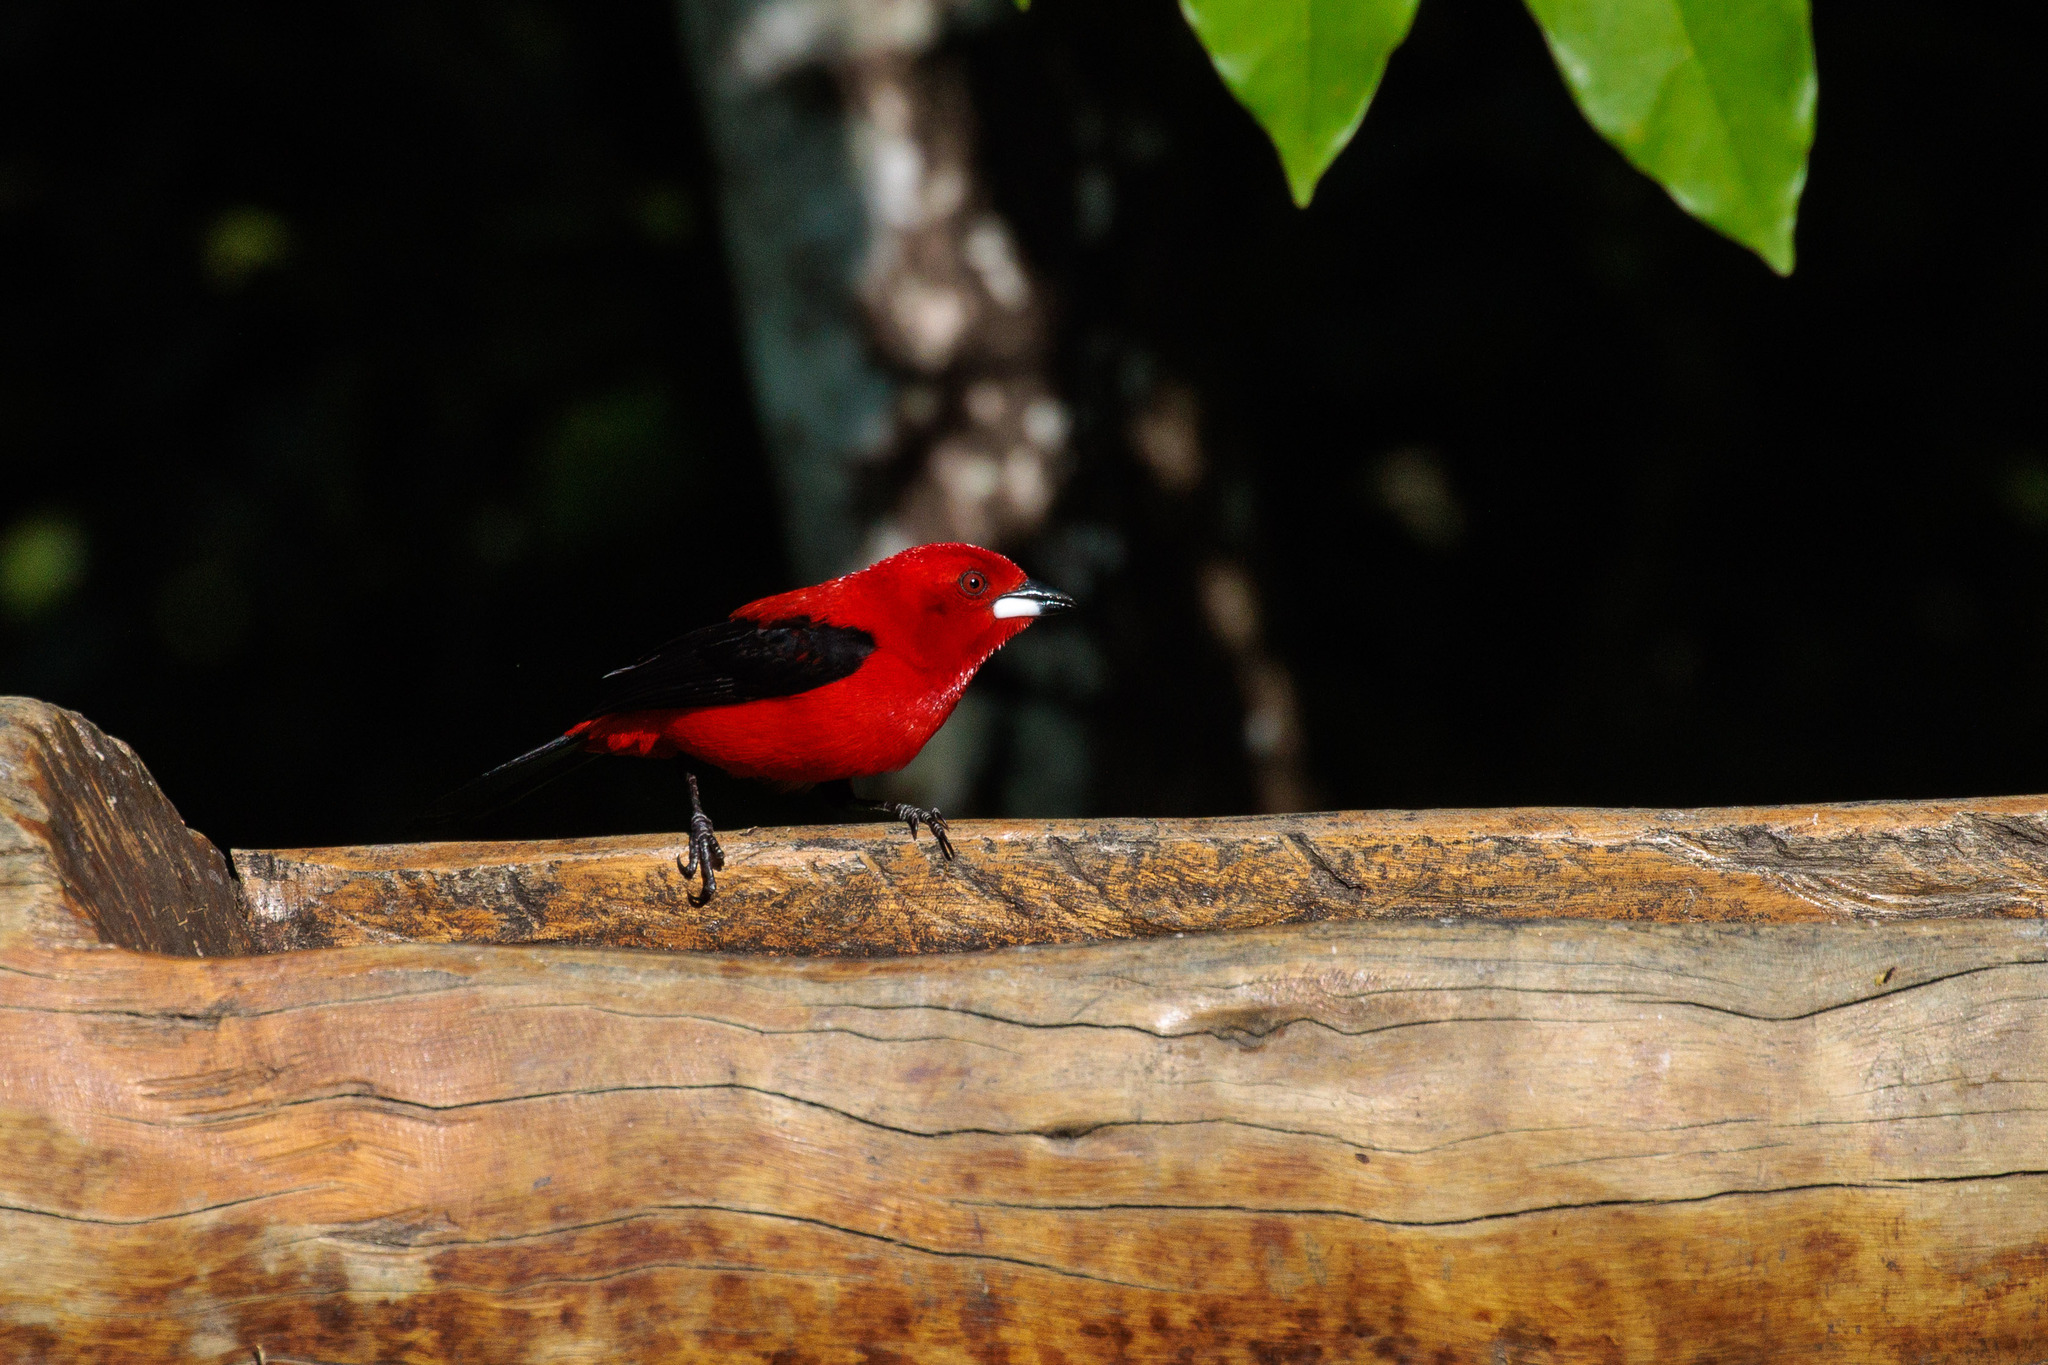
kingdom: Animalia
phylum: Chordata
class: Aves
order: Passeriformes
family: Thraupidae
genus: Ramphocelus
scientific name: Ramphocelus bresilia
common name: Brazilian tanager
